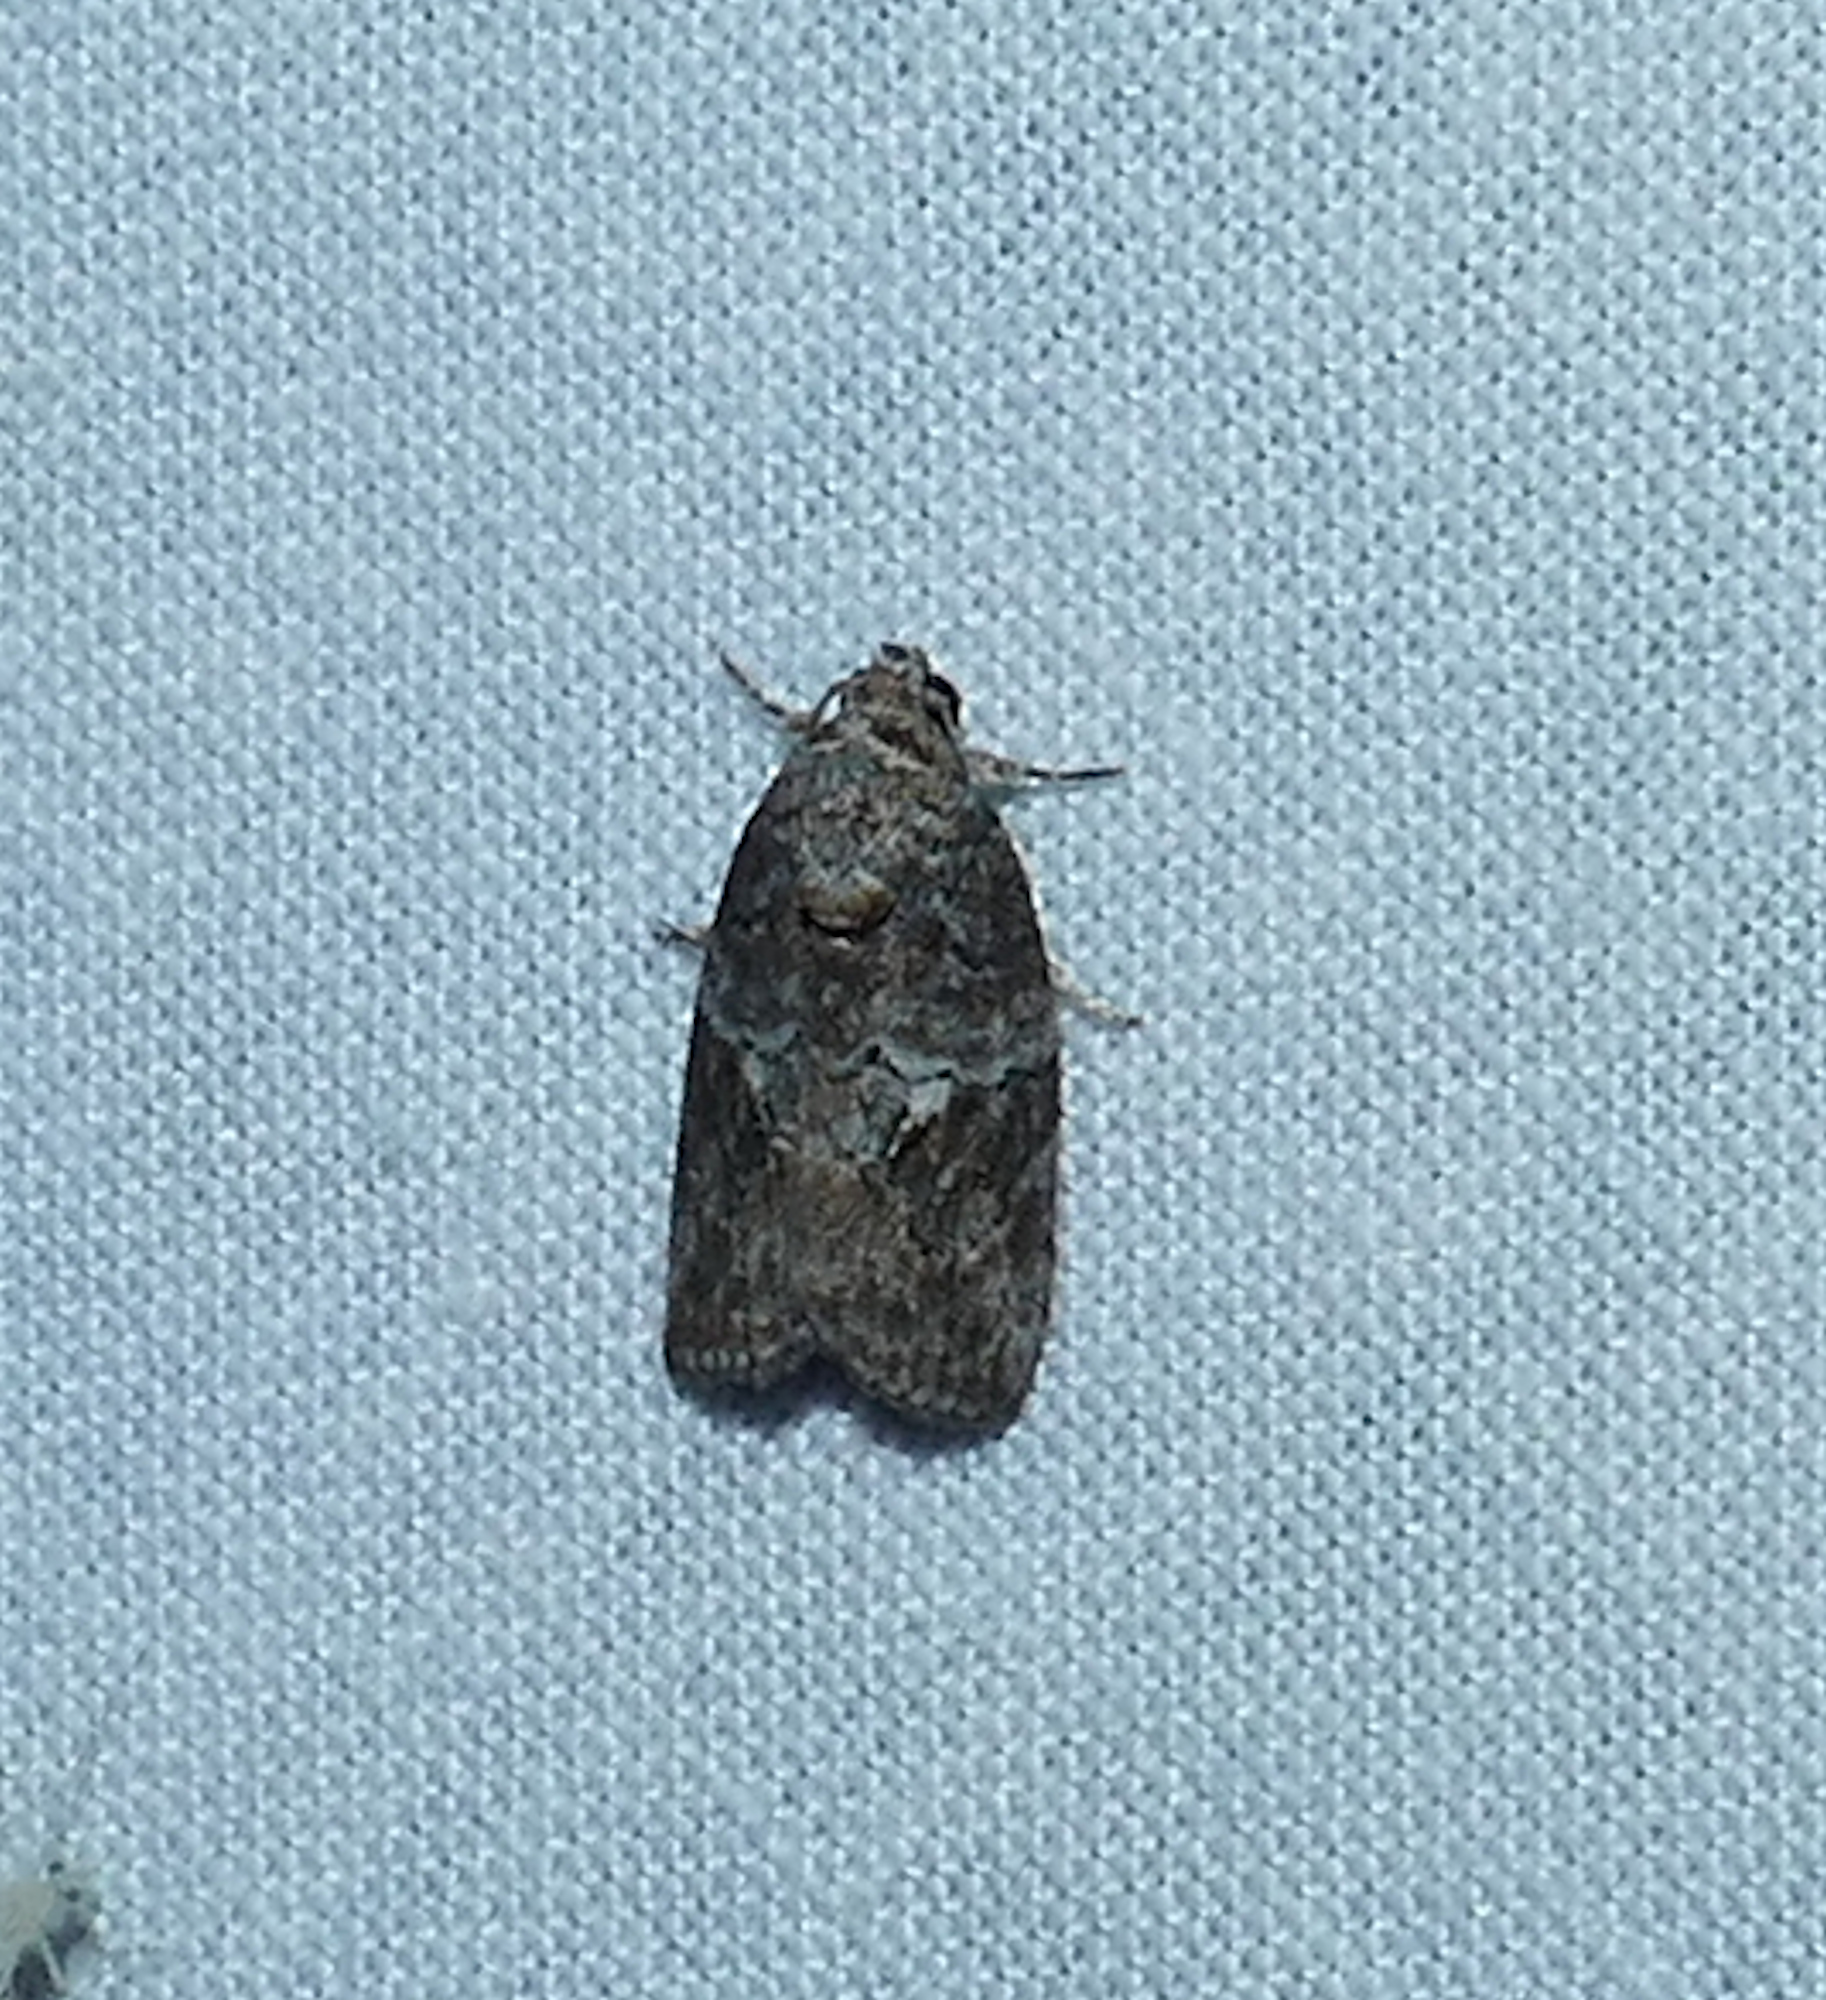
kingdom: Animalia
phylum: Arthropoda
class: Insecta
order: Lepidoptera
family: Nolidae
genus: Garella
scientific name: Garella nilotica
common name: Black-olive caterpillar moth
